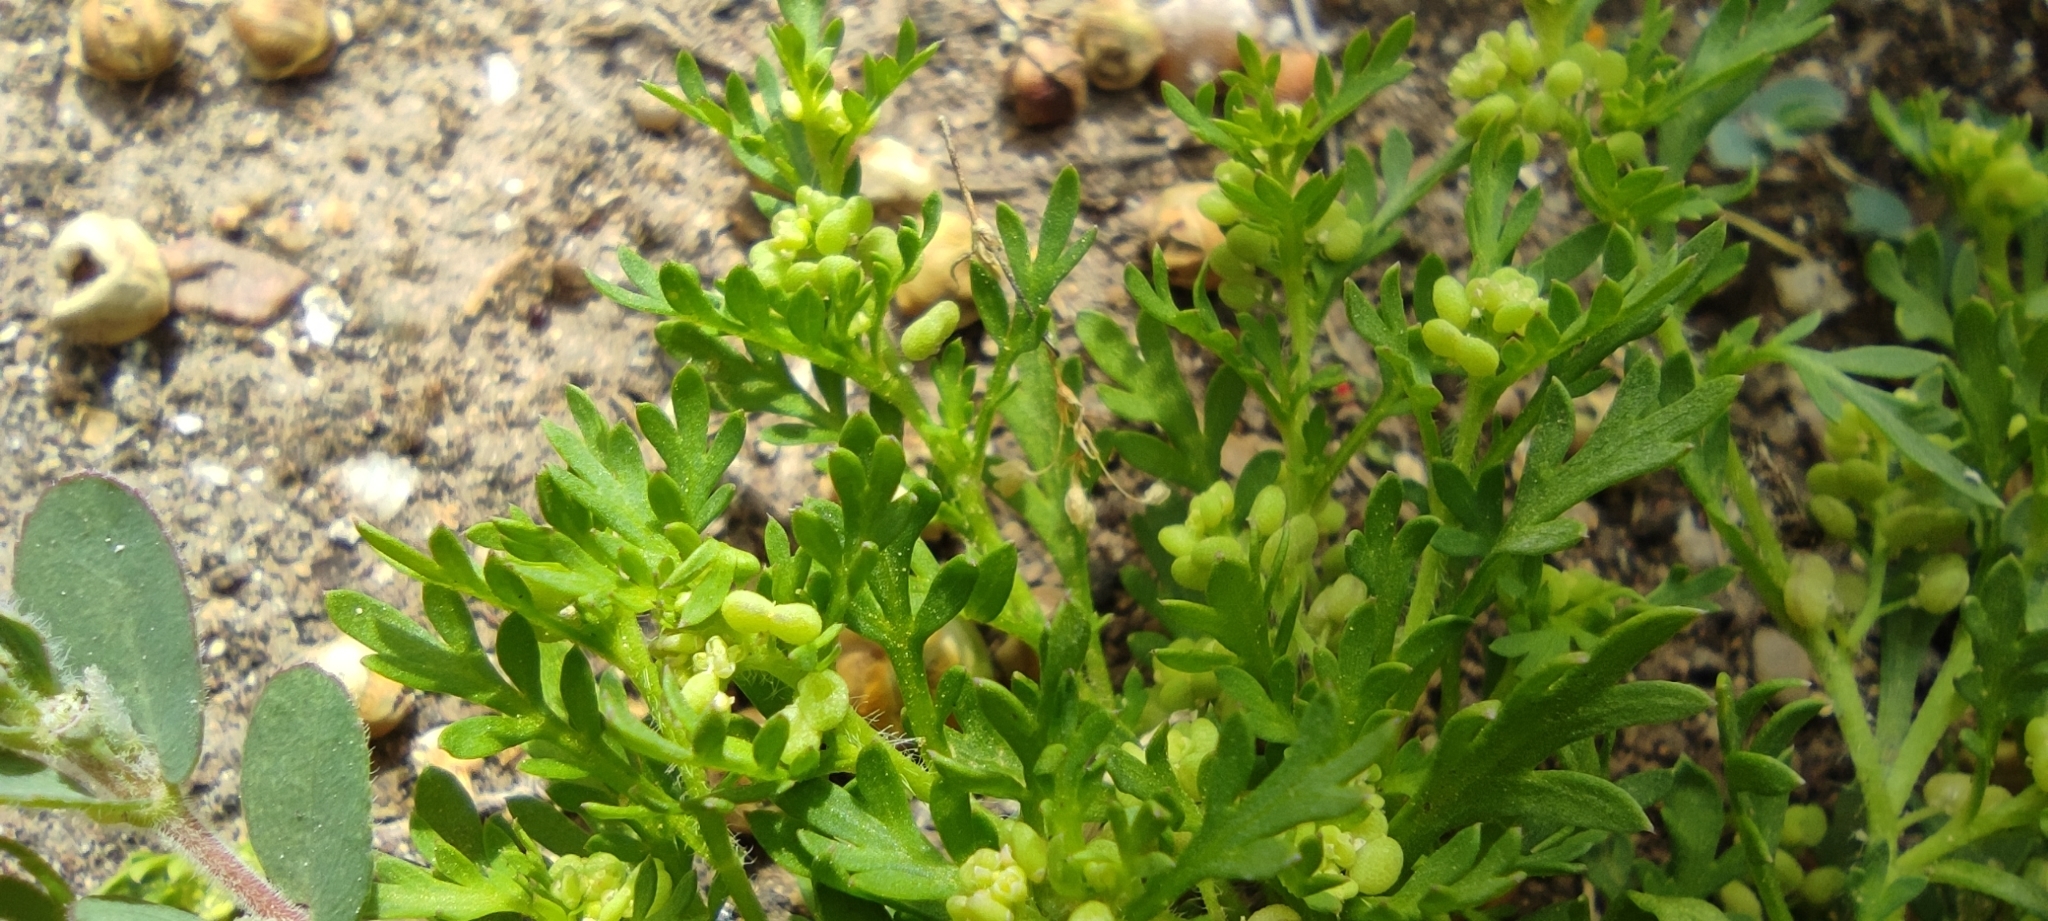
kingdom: Plantae
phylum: Tracheophyta
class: Magnoliopsida
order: Brassicales
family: Brassicaceae
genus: Lepidium
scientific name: Lepidium didymum
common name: Lesser swinecress
